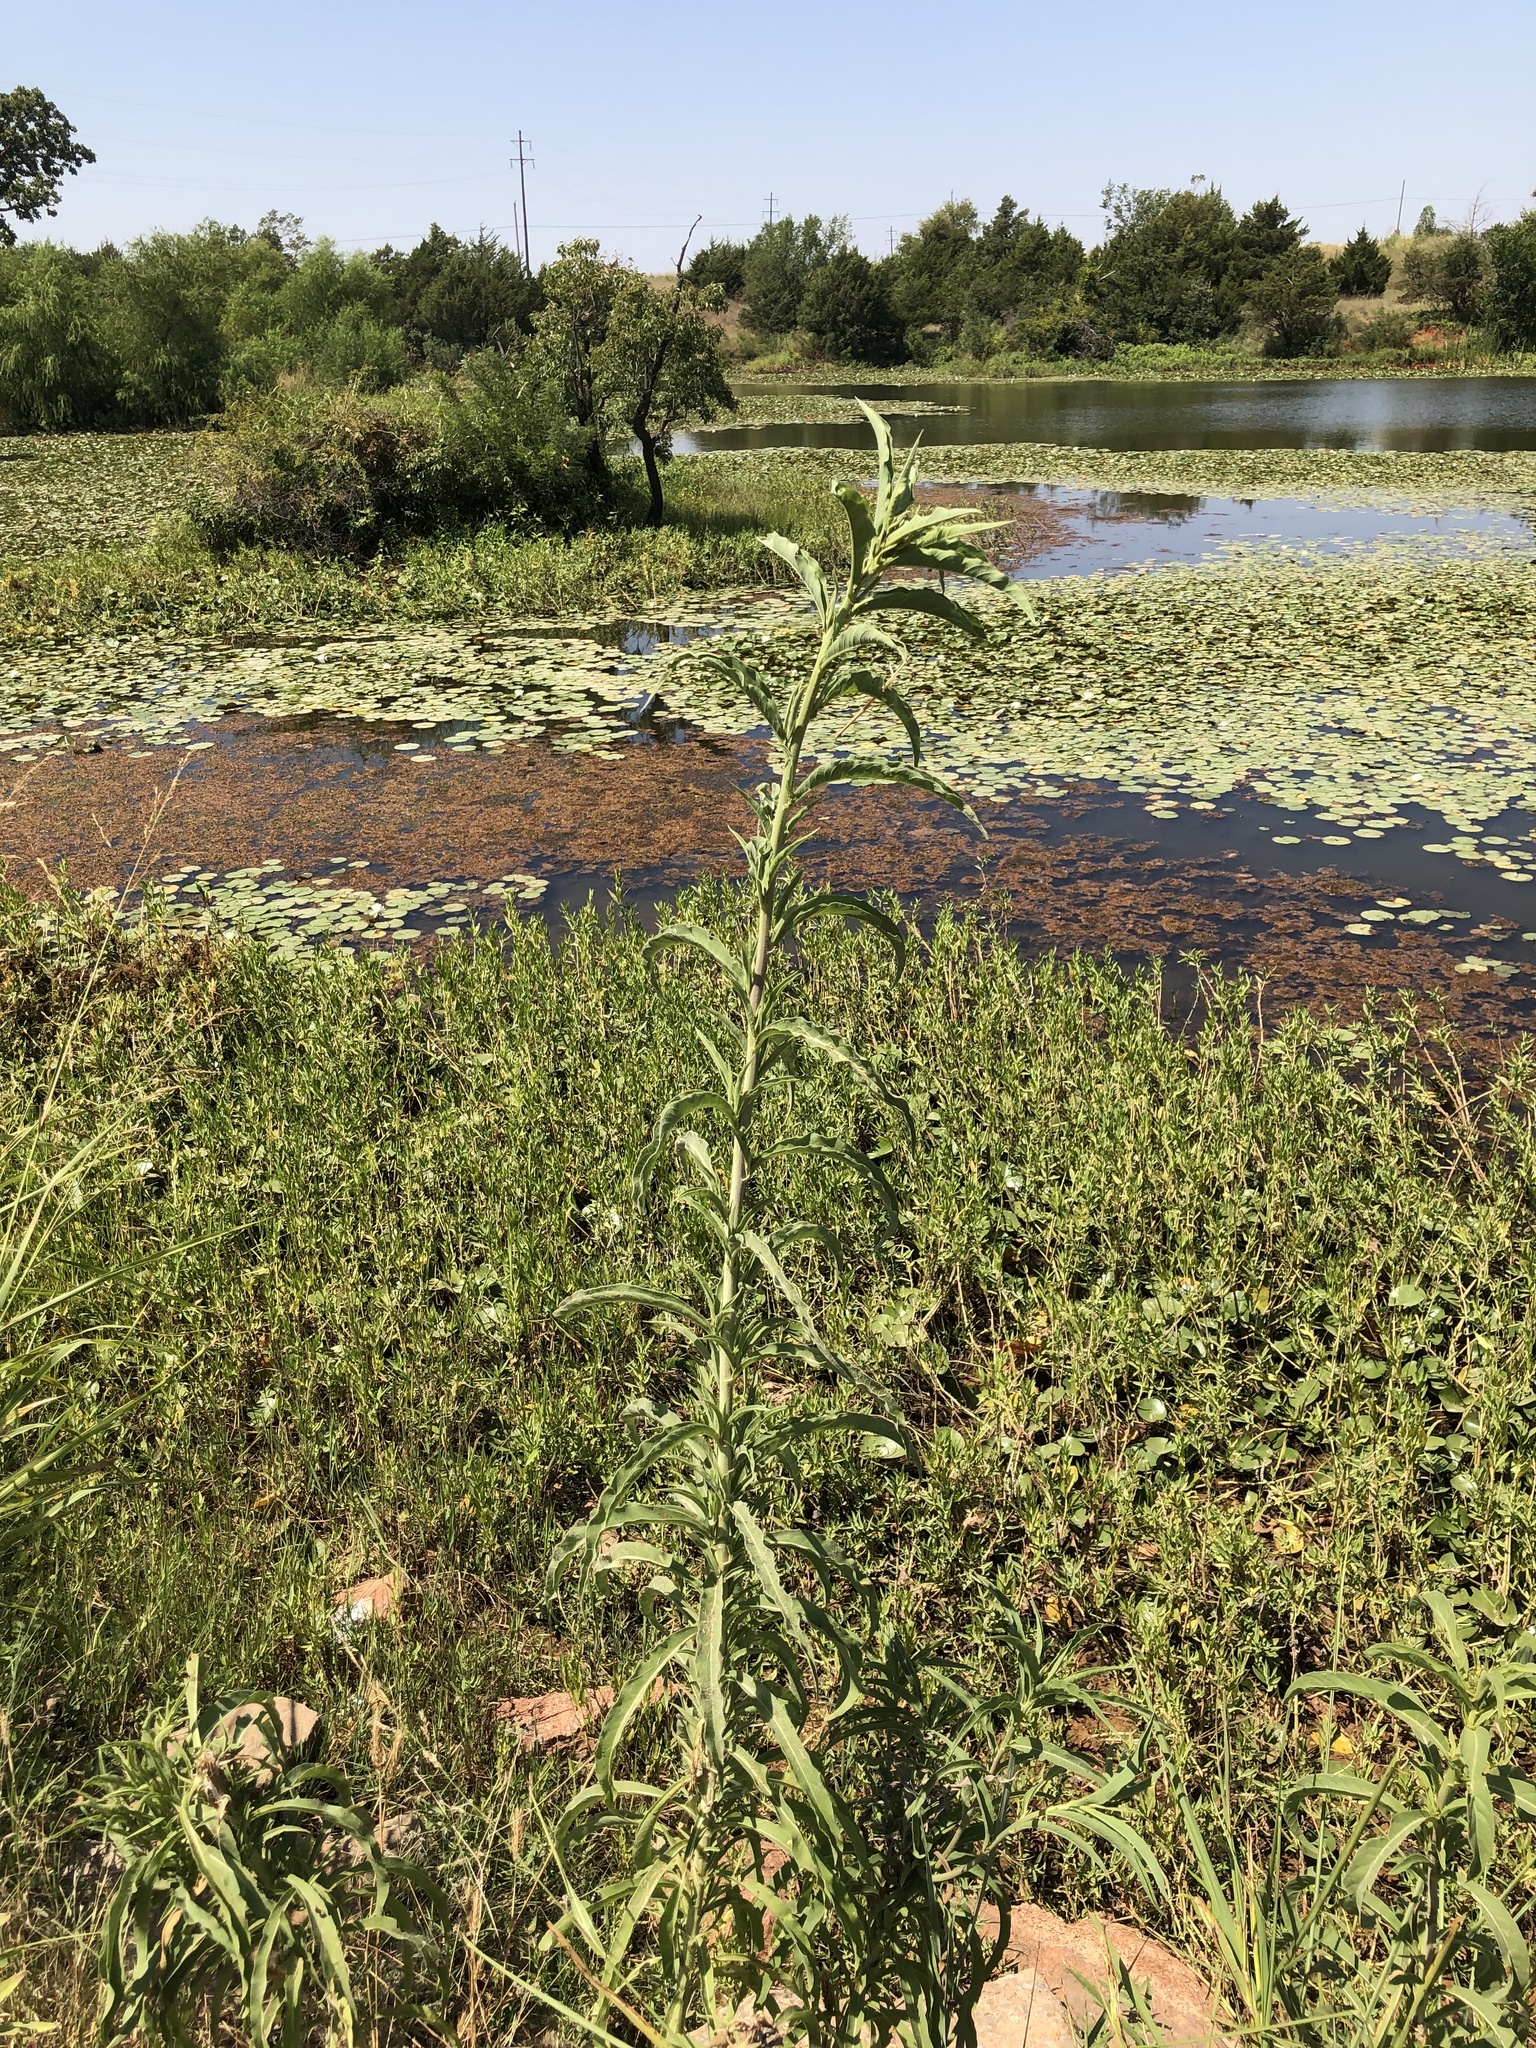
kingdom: Plantae
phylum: Tracheophyta
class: Magnoliopsida
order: Asterales
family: Asteraceae
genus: Helianthus
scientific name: Helianthus maximiliani
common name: Maximilian's sunflower
